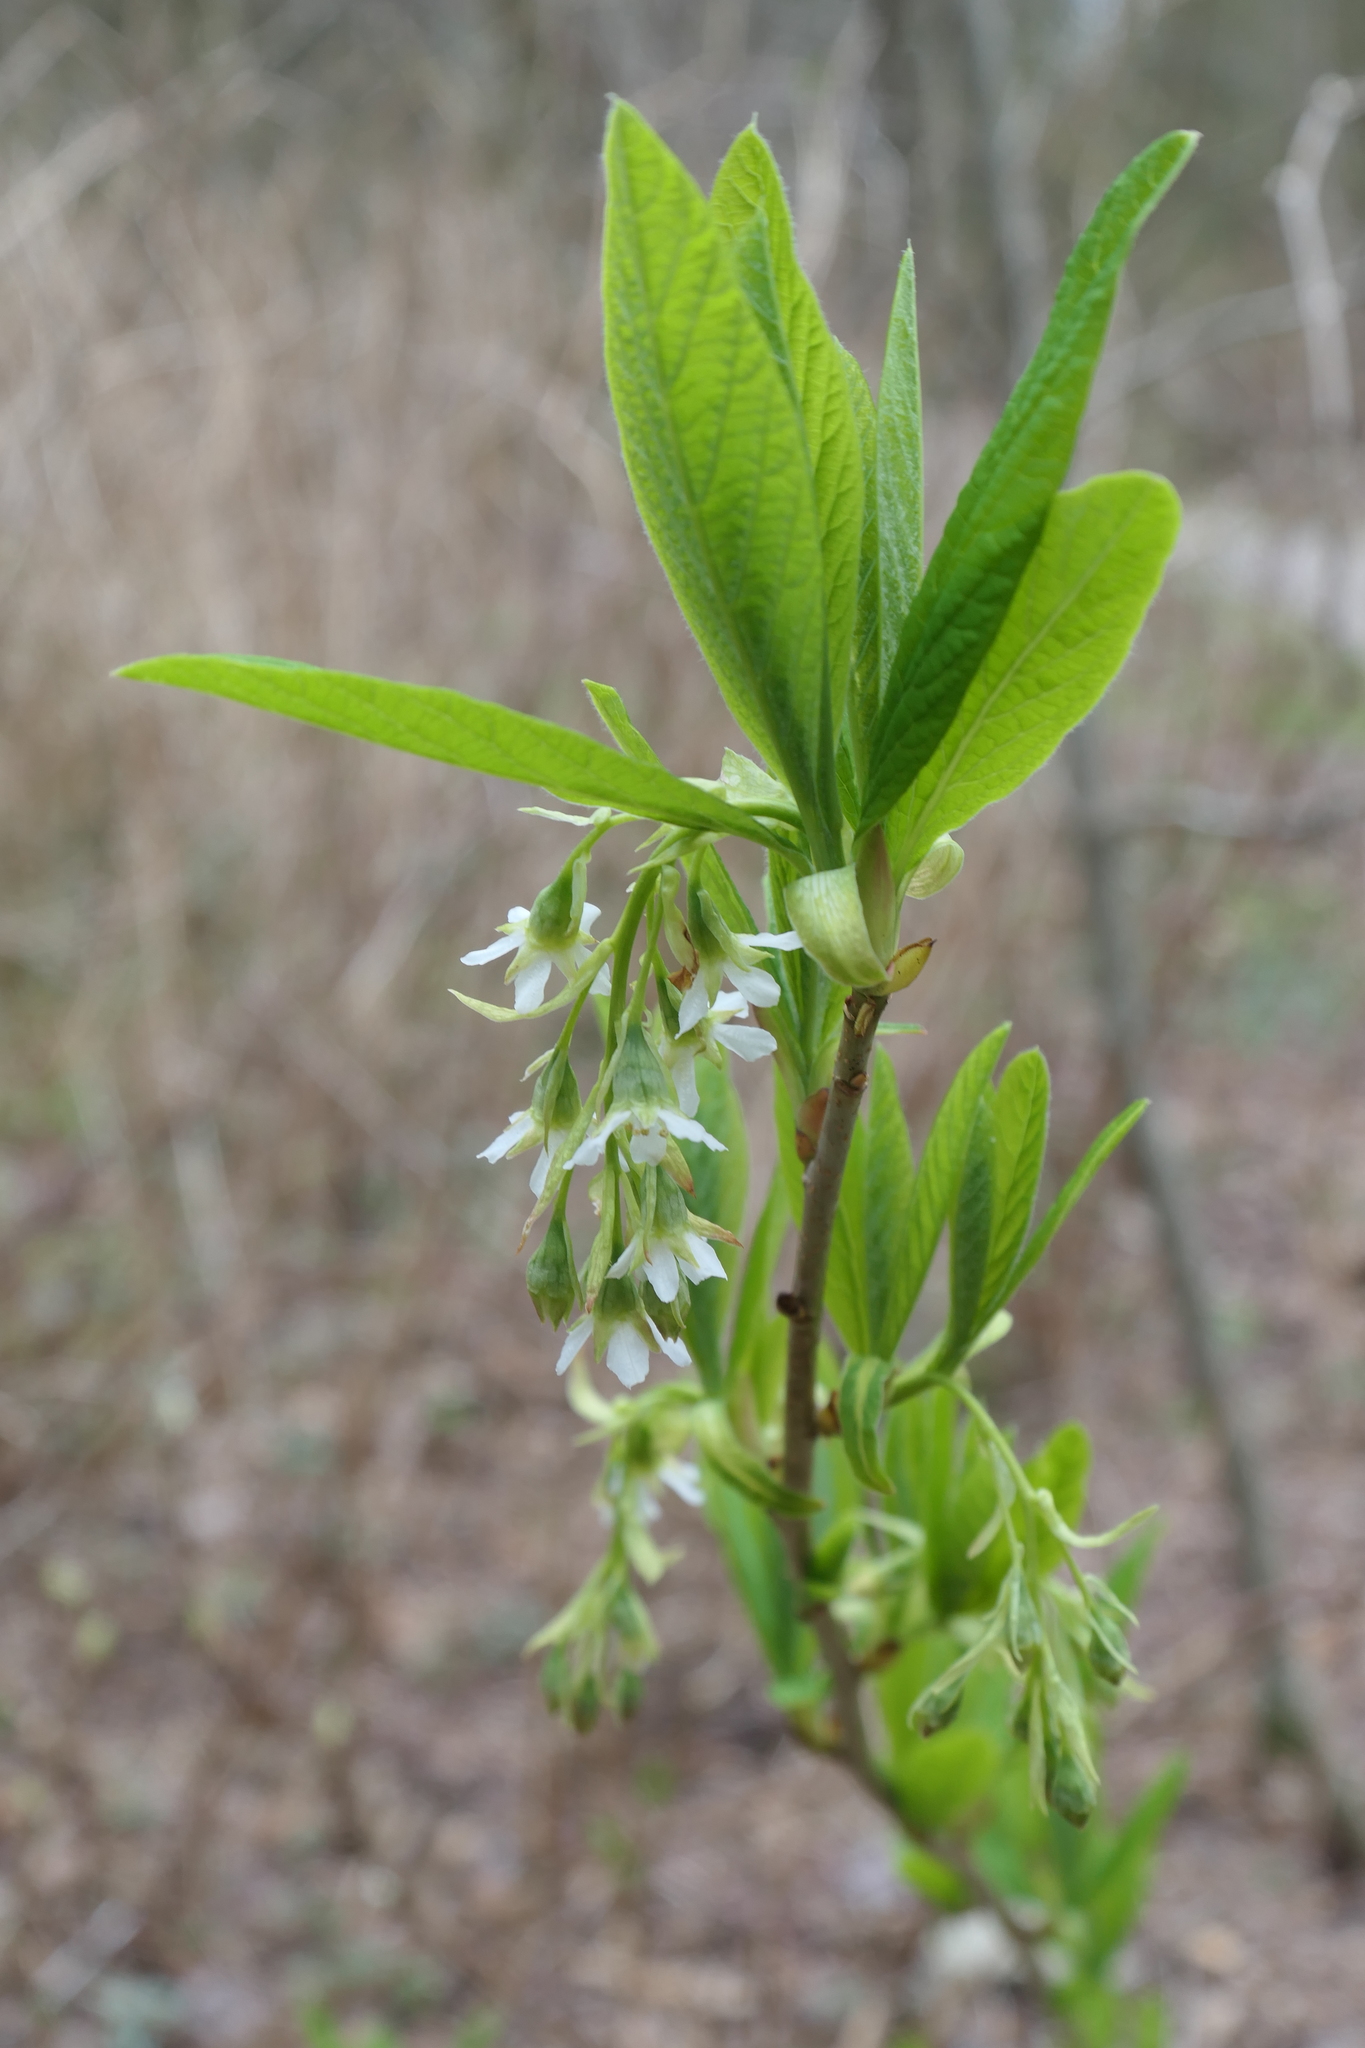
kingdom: Plantae
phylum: Tracheophyta
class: Magnoliopsida
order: Rosales
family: Rosaceae
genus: Oemleria
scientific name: Oemleria cerasiformis
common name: Osoberry
